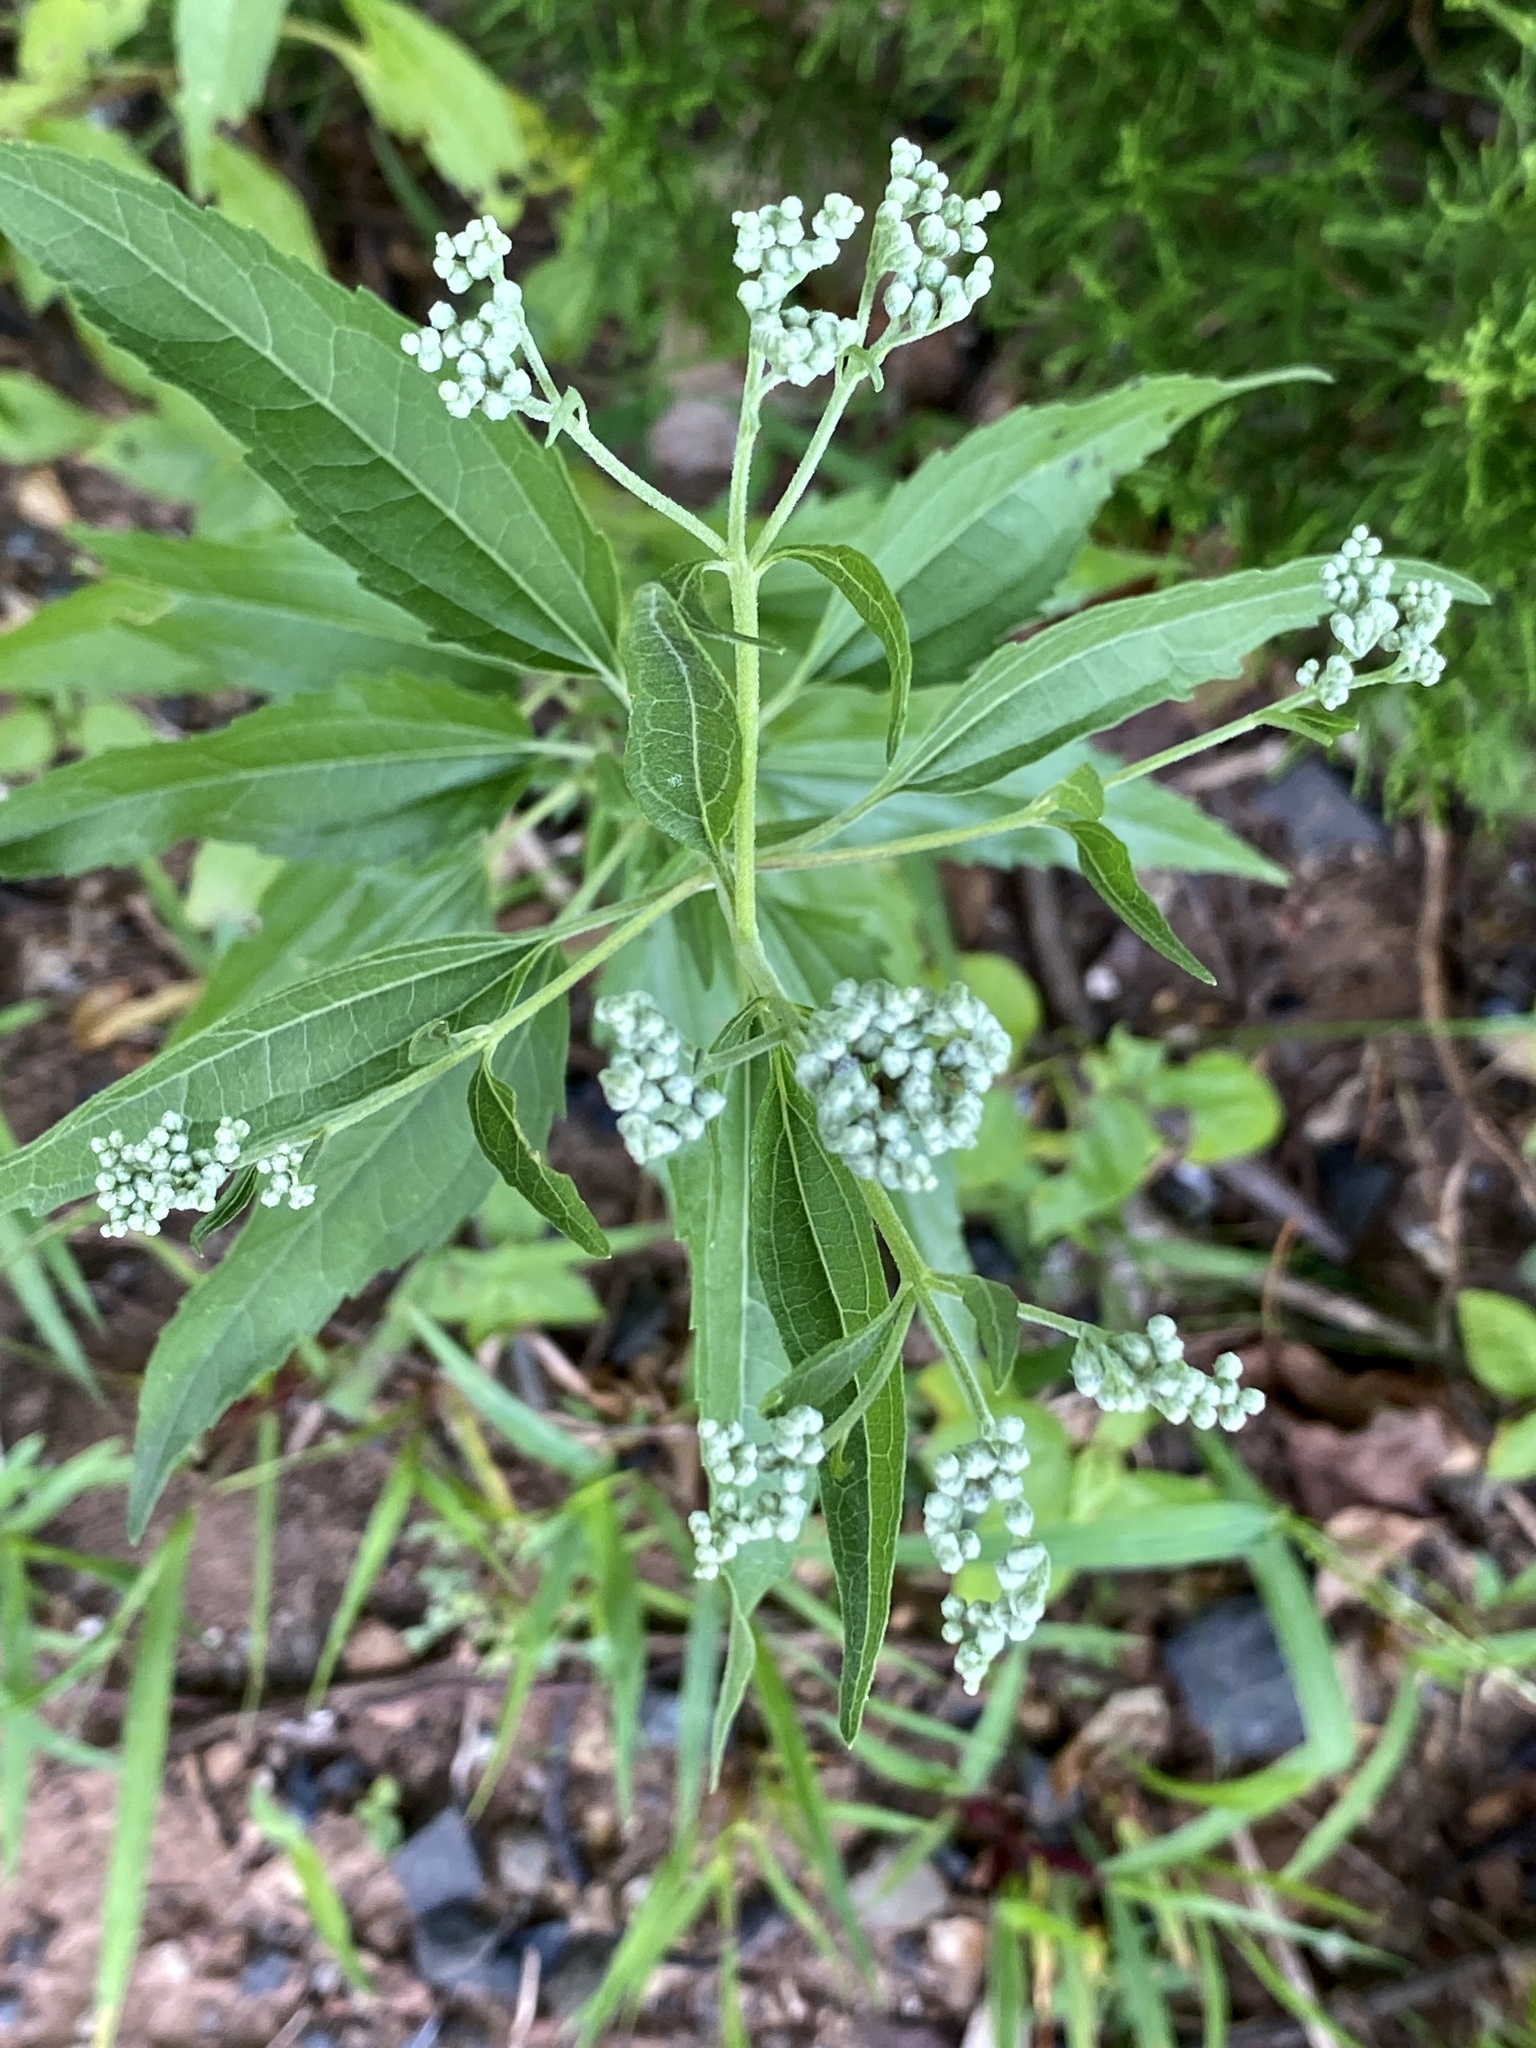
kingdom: Plantae
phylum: Tracheophyta
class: Magnoliopsida
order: Asterales
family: Asteraceae
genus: Eupatorium
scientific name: Eupatorium serotinum
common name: Late boneset
